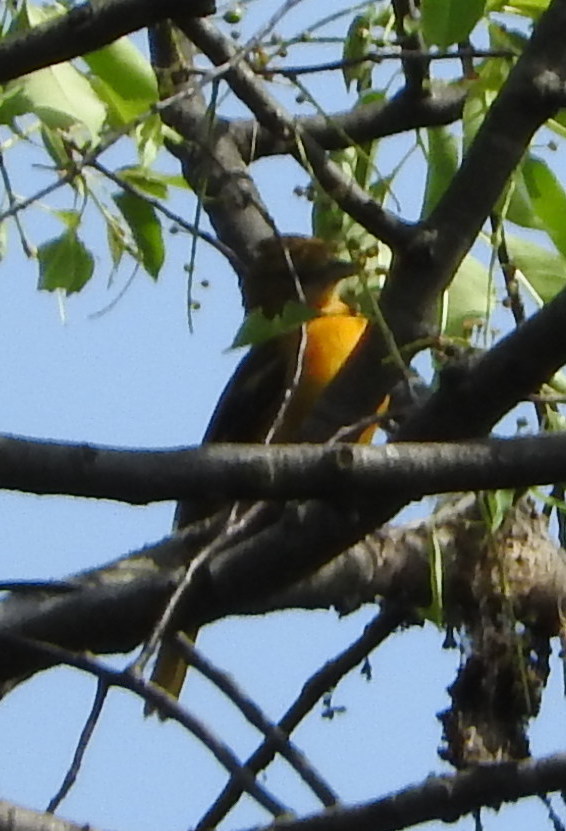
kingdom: Animalia
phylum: Chordata
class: Aves
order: Passeriformes
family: Icteridae
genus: Icterus
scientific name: Icterus galbula
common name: Baltimore oriole
